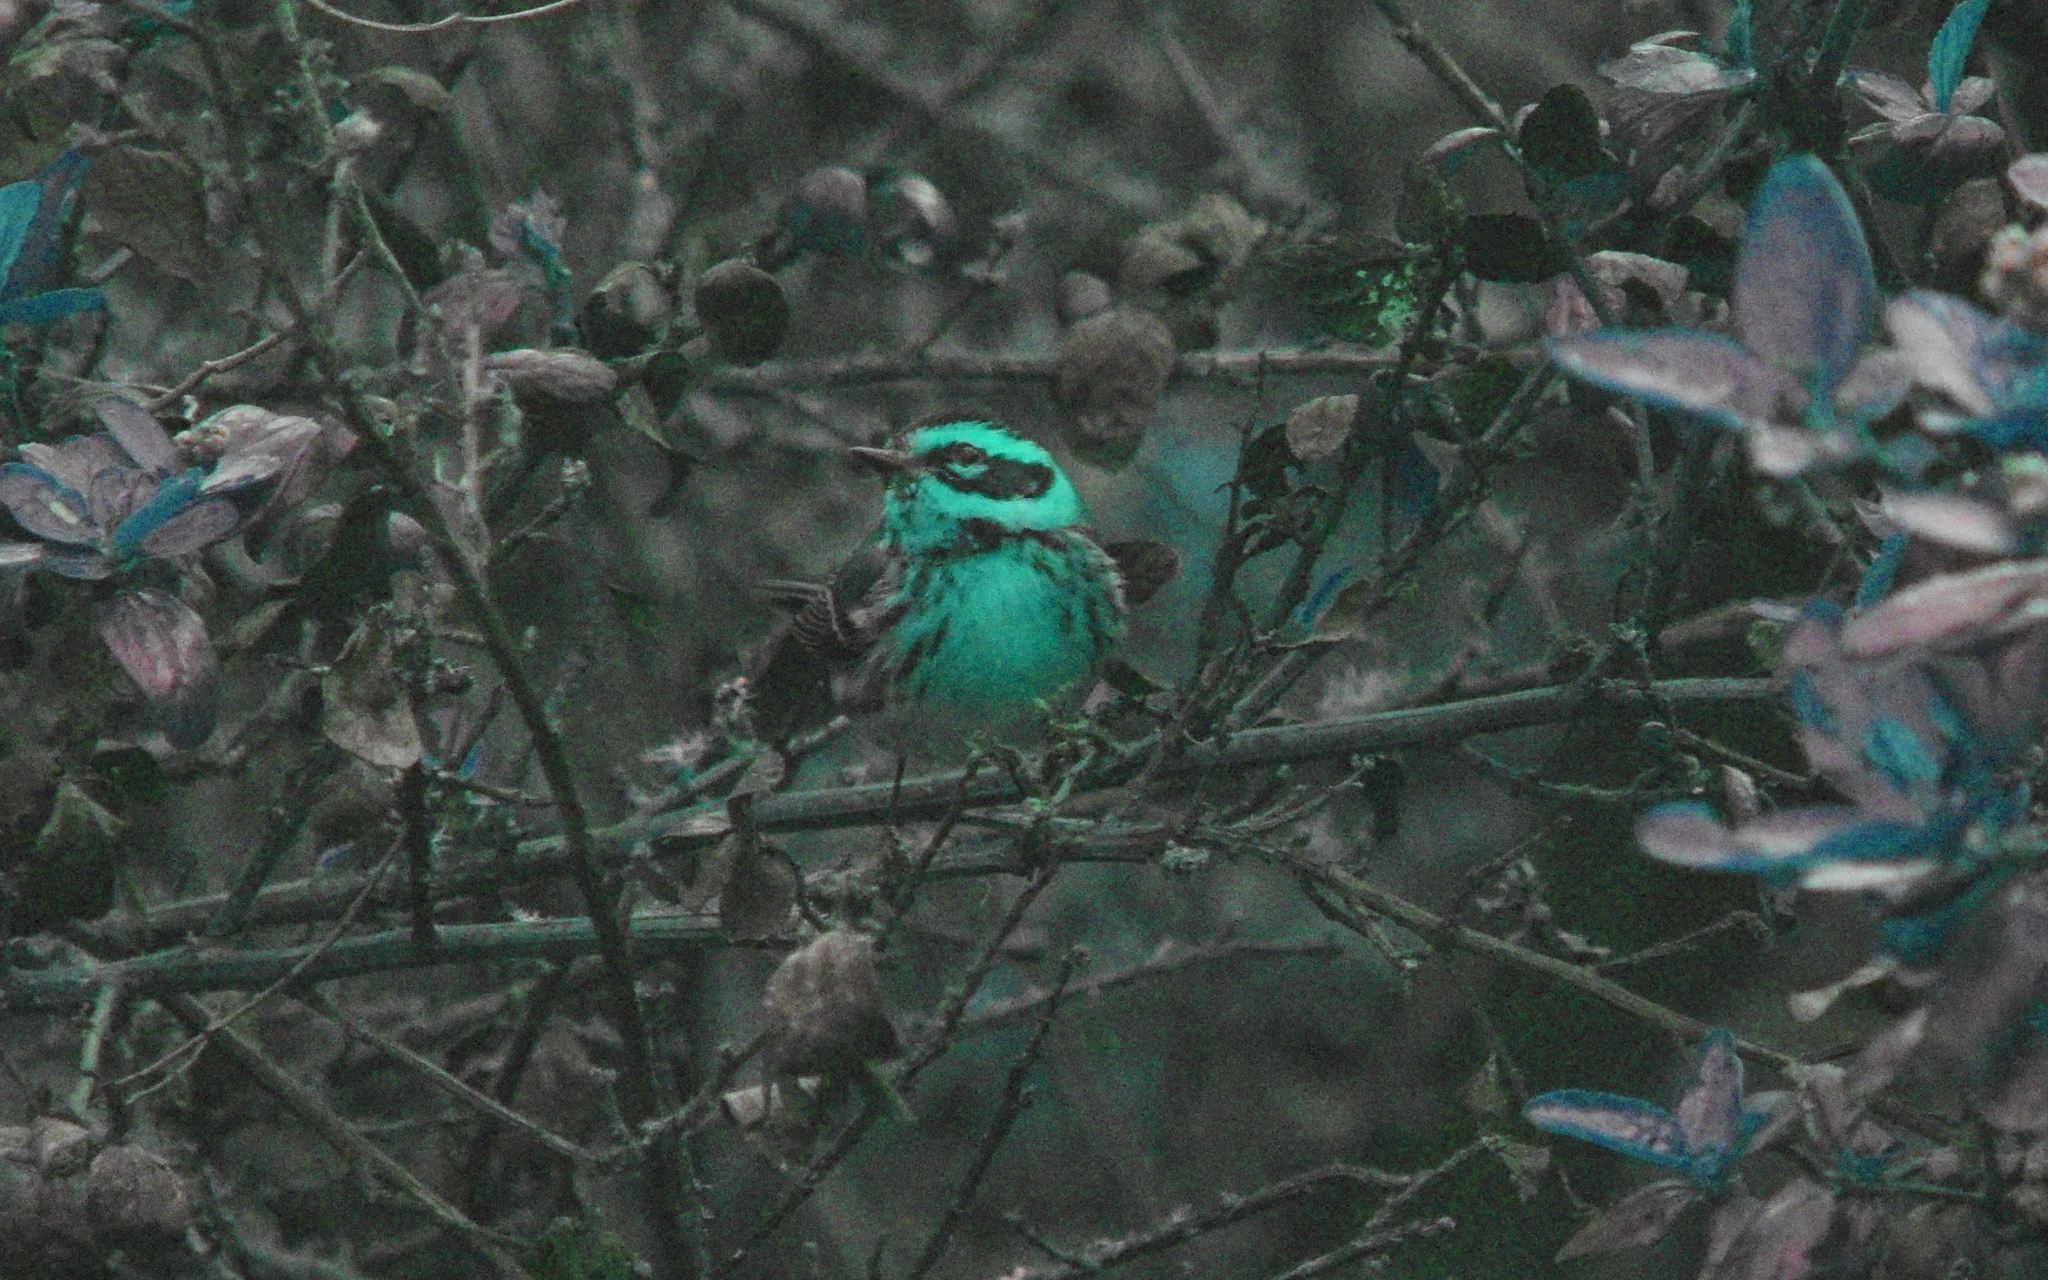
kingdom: Animalia
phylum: Chordata
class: Aves
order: Passeriformes
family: Parulidae
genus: Setophaga
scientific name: Setophaga townsendi
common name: Townsend's warbler
